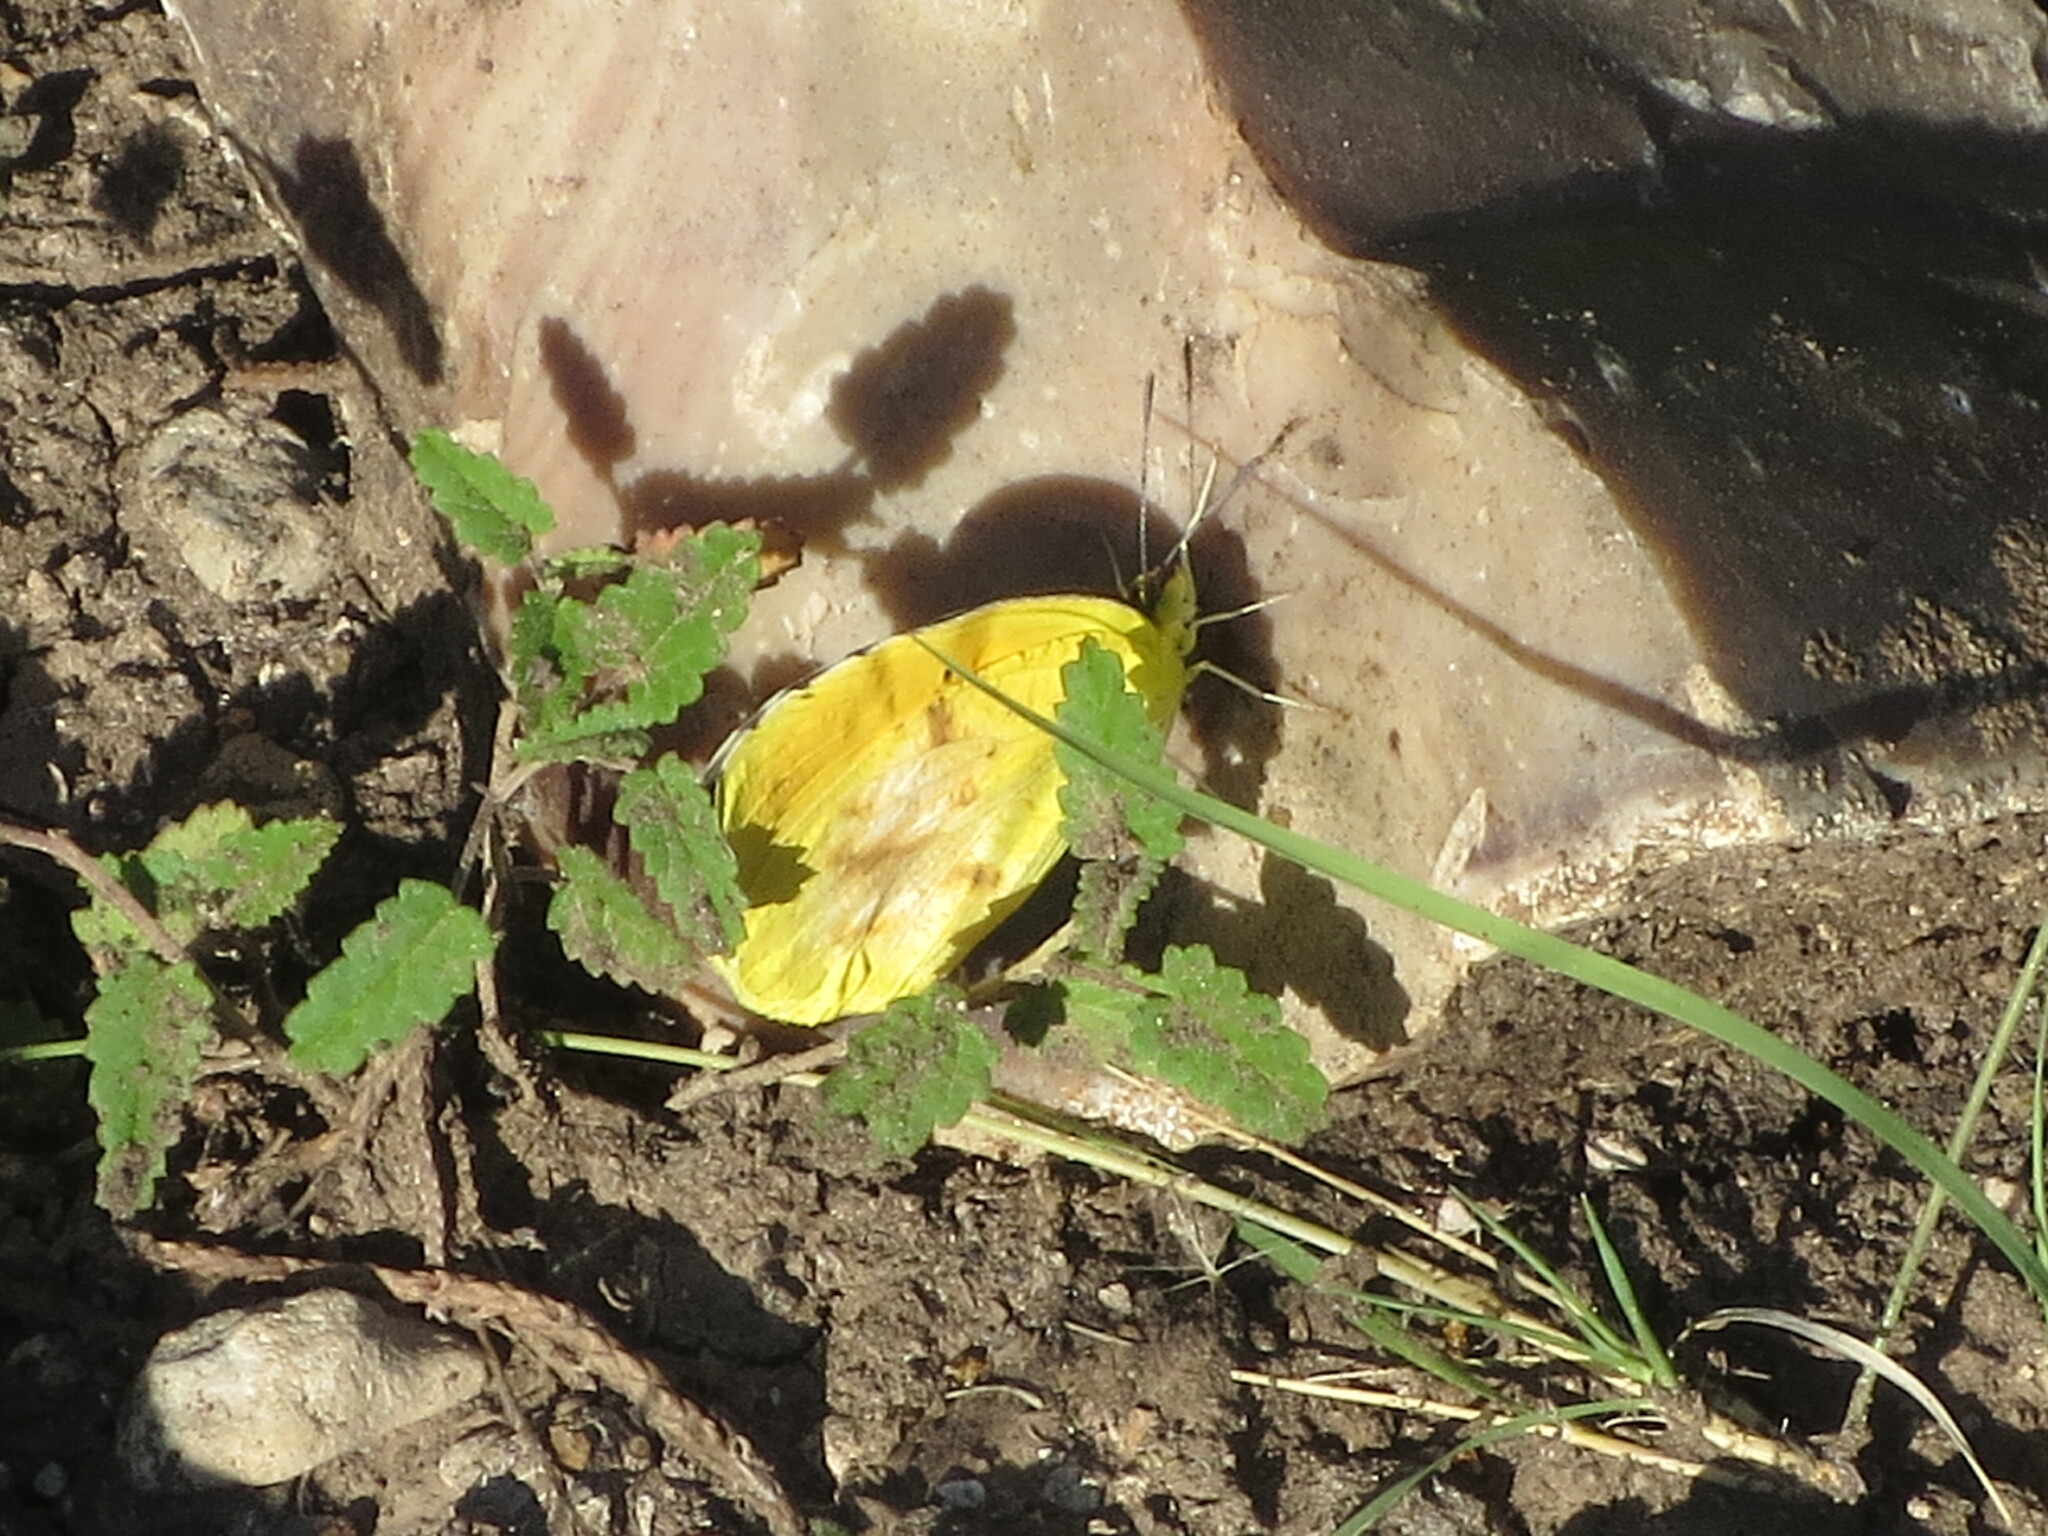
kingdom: Animalia
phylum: Arthropoda
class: Insecta
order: Lepidoptera
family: Pieridae
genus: Abaeis
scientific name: Abaeis nicippe
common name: Sleepy orange
